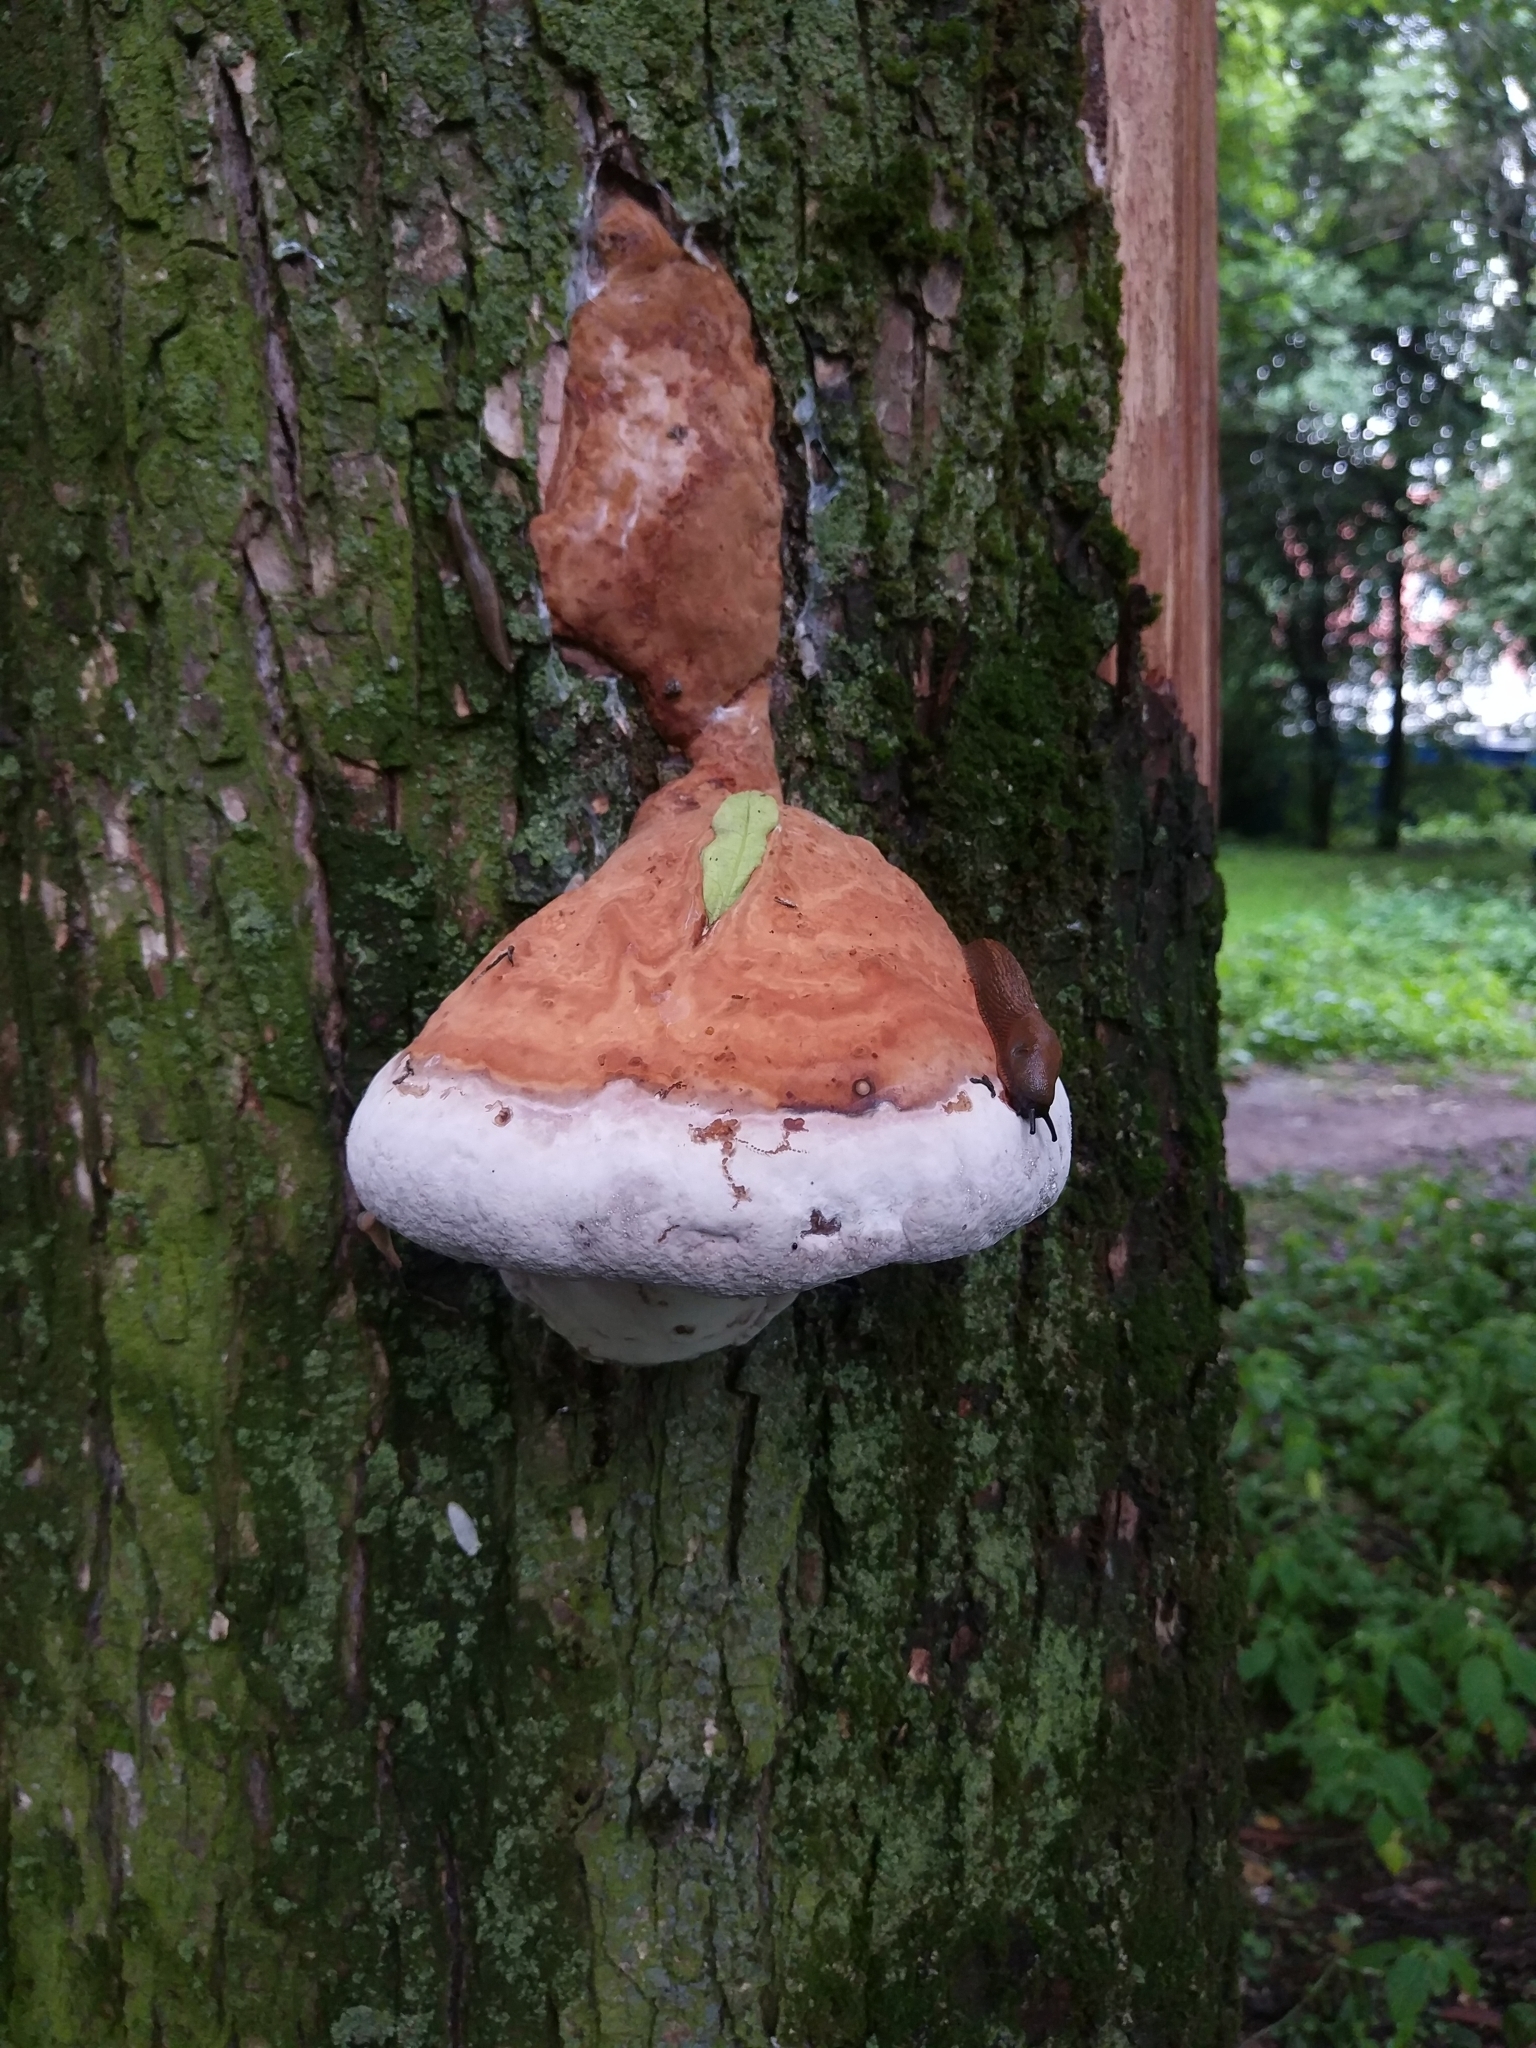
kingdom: Fungi
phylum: Basidiomycota
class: Agaricomycetes
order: Polyporales
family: Fomitopsidaceae
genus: Fomitopsis
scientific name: Fomitopsis pinicola
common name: Red-belted bracket
